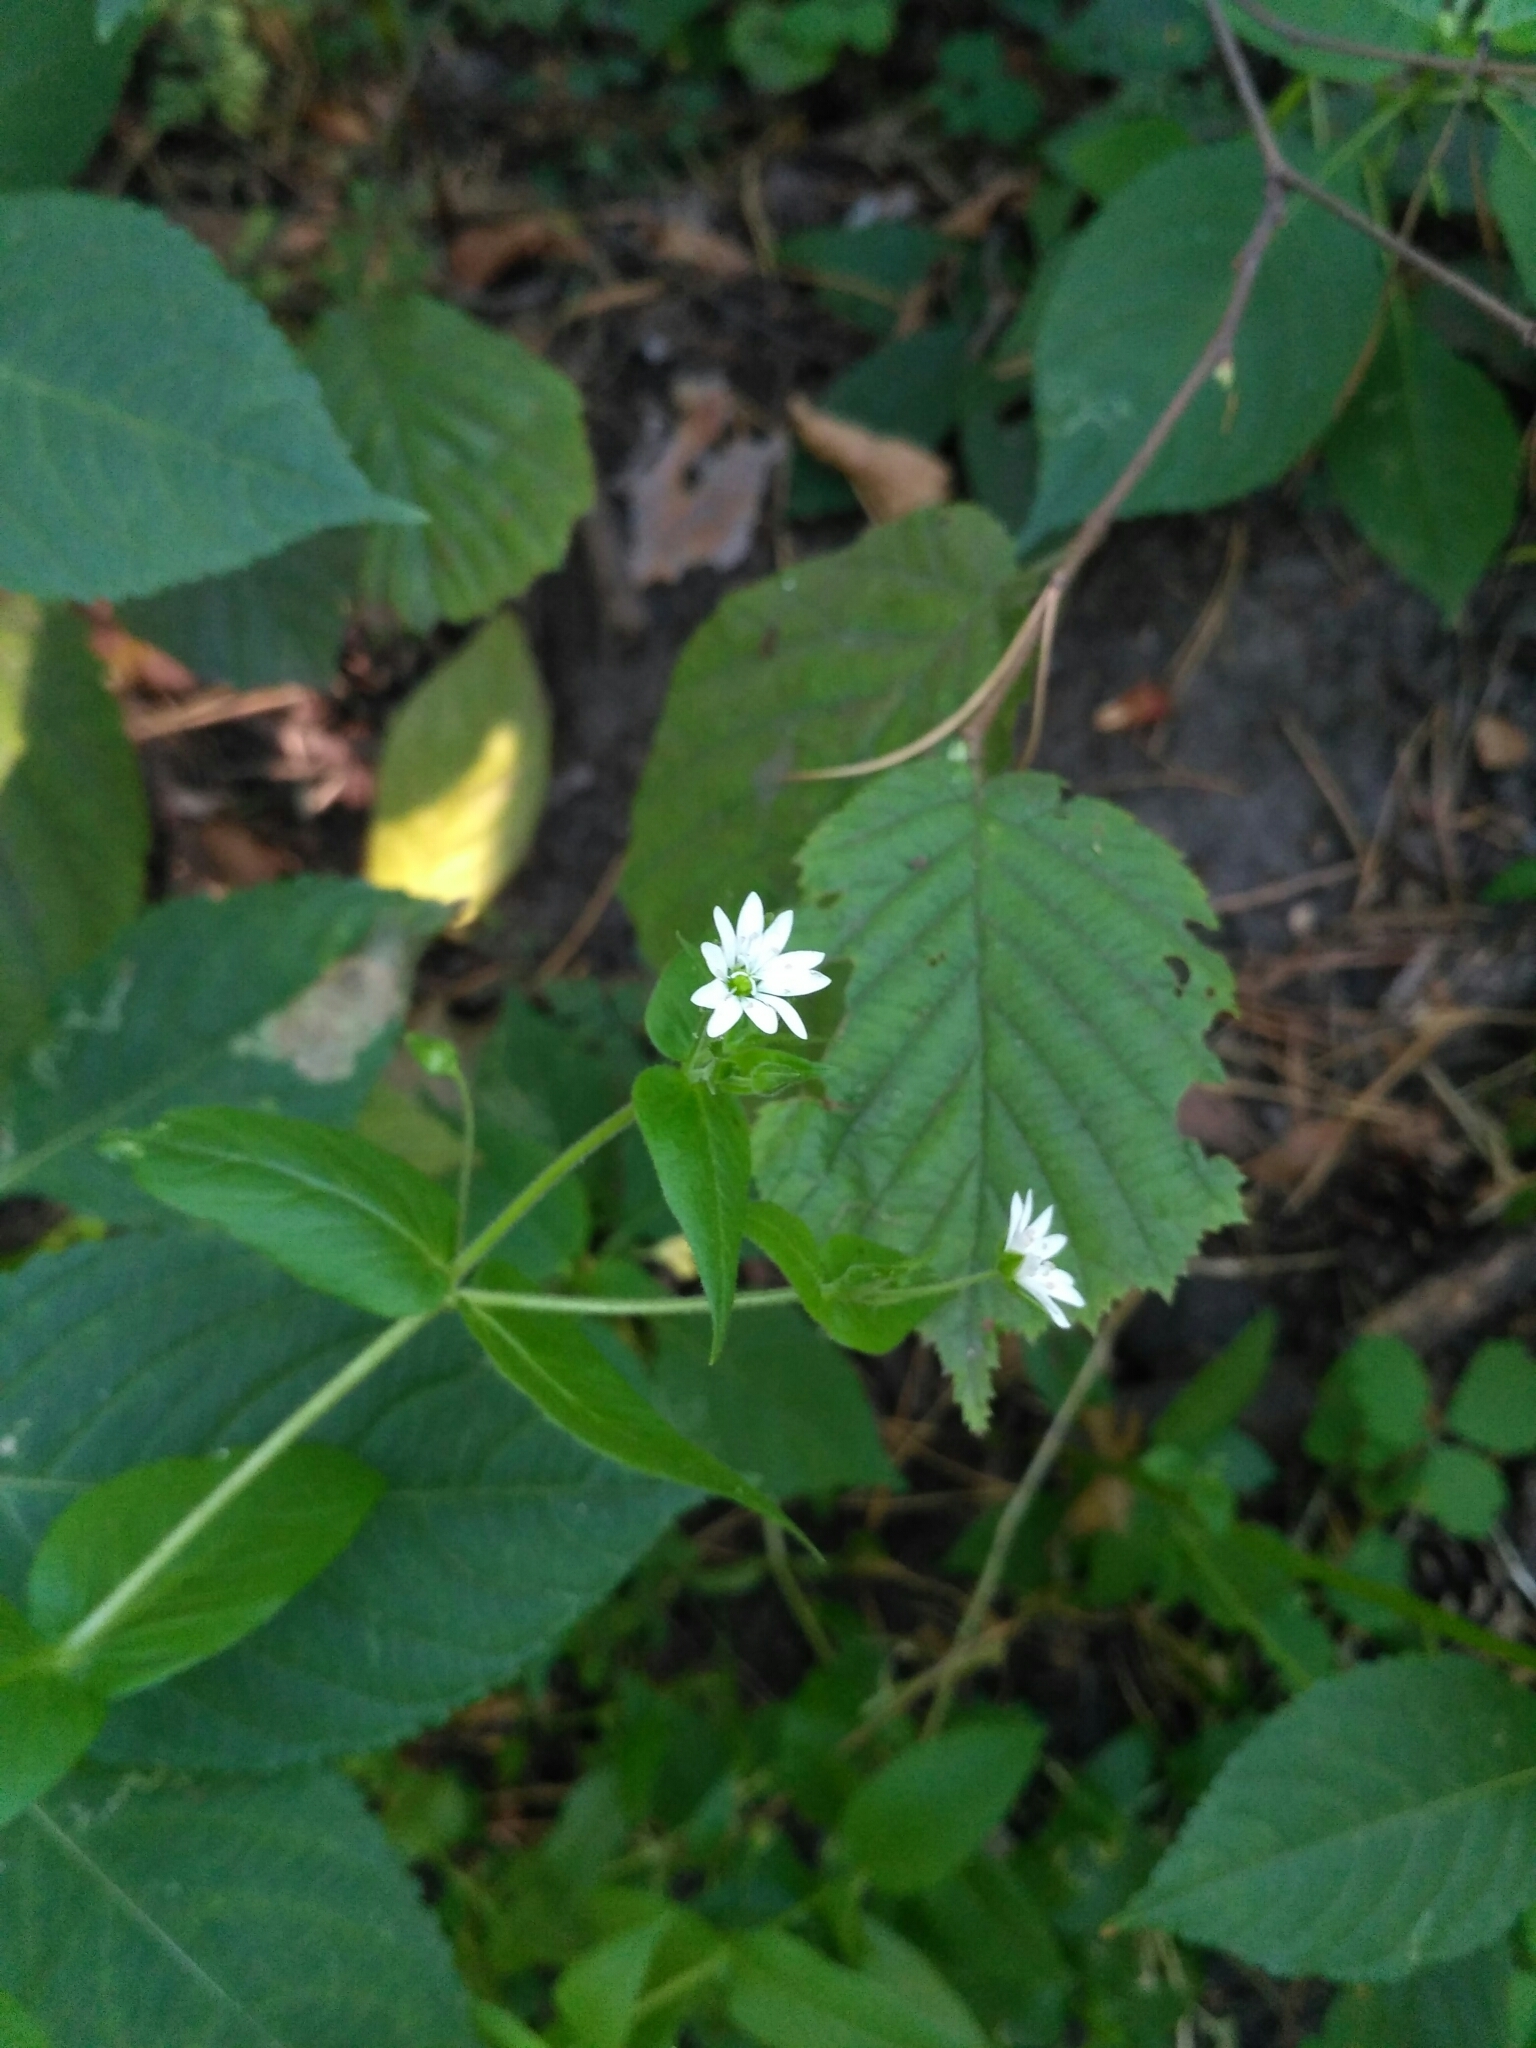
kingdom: Plantae
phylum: Tracheophyta
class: Magnoliopsida
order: Caryophyllales
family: Caryophyllaceae
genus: Stellaria
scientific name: Stellaria aquatica
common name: Water chickweed
